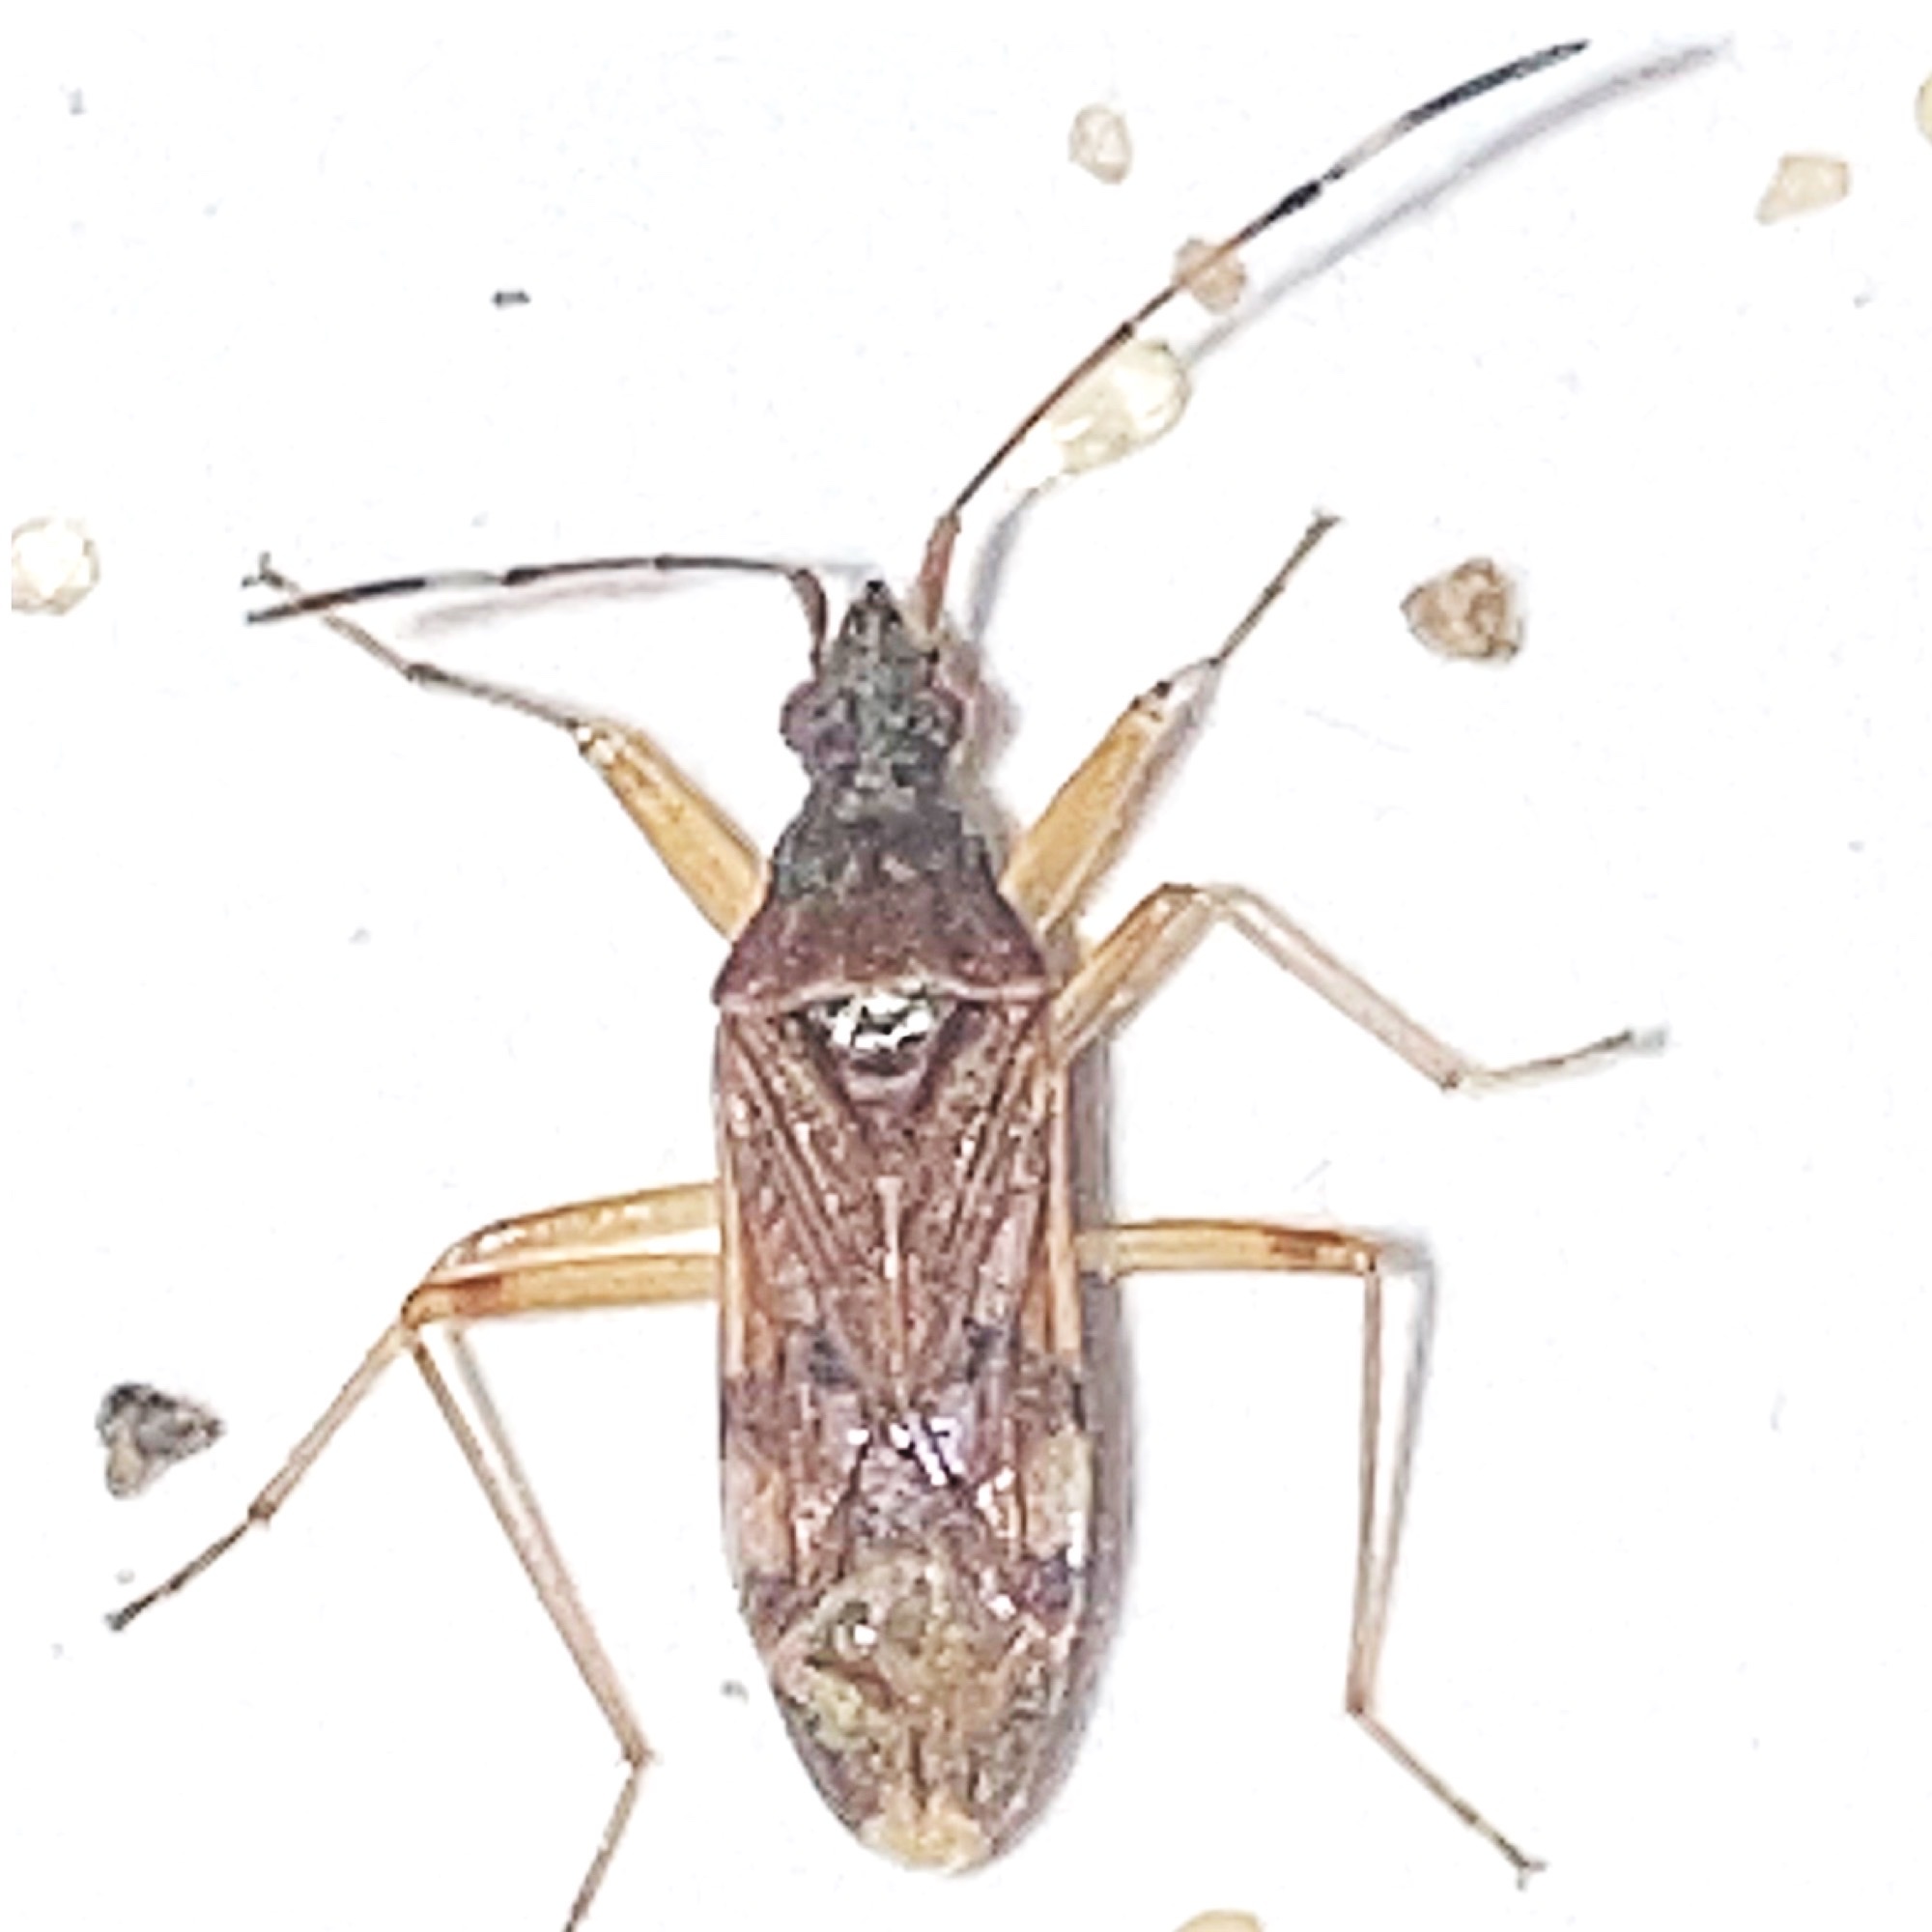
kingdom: Animalia
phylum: Arthropoda
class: Insecta
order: Hemiptera
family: Rhyparochromidae
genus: Ozophora
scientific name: Ozophora picturata
